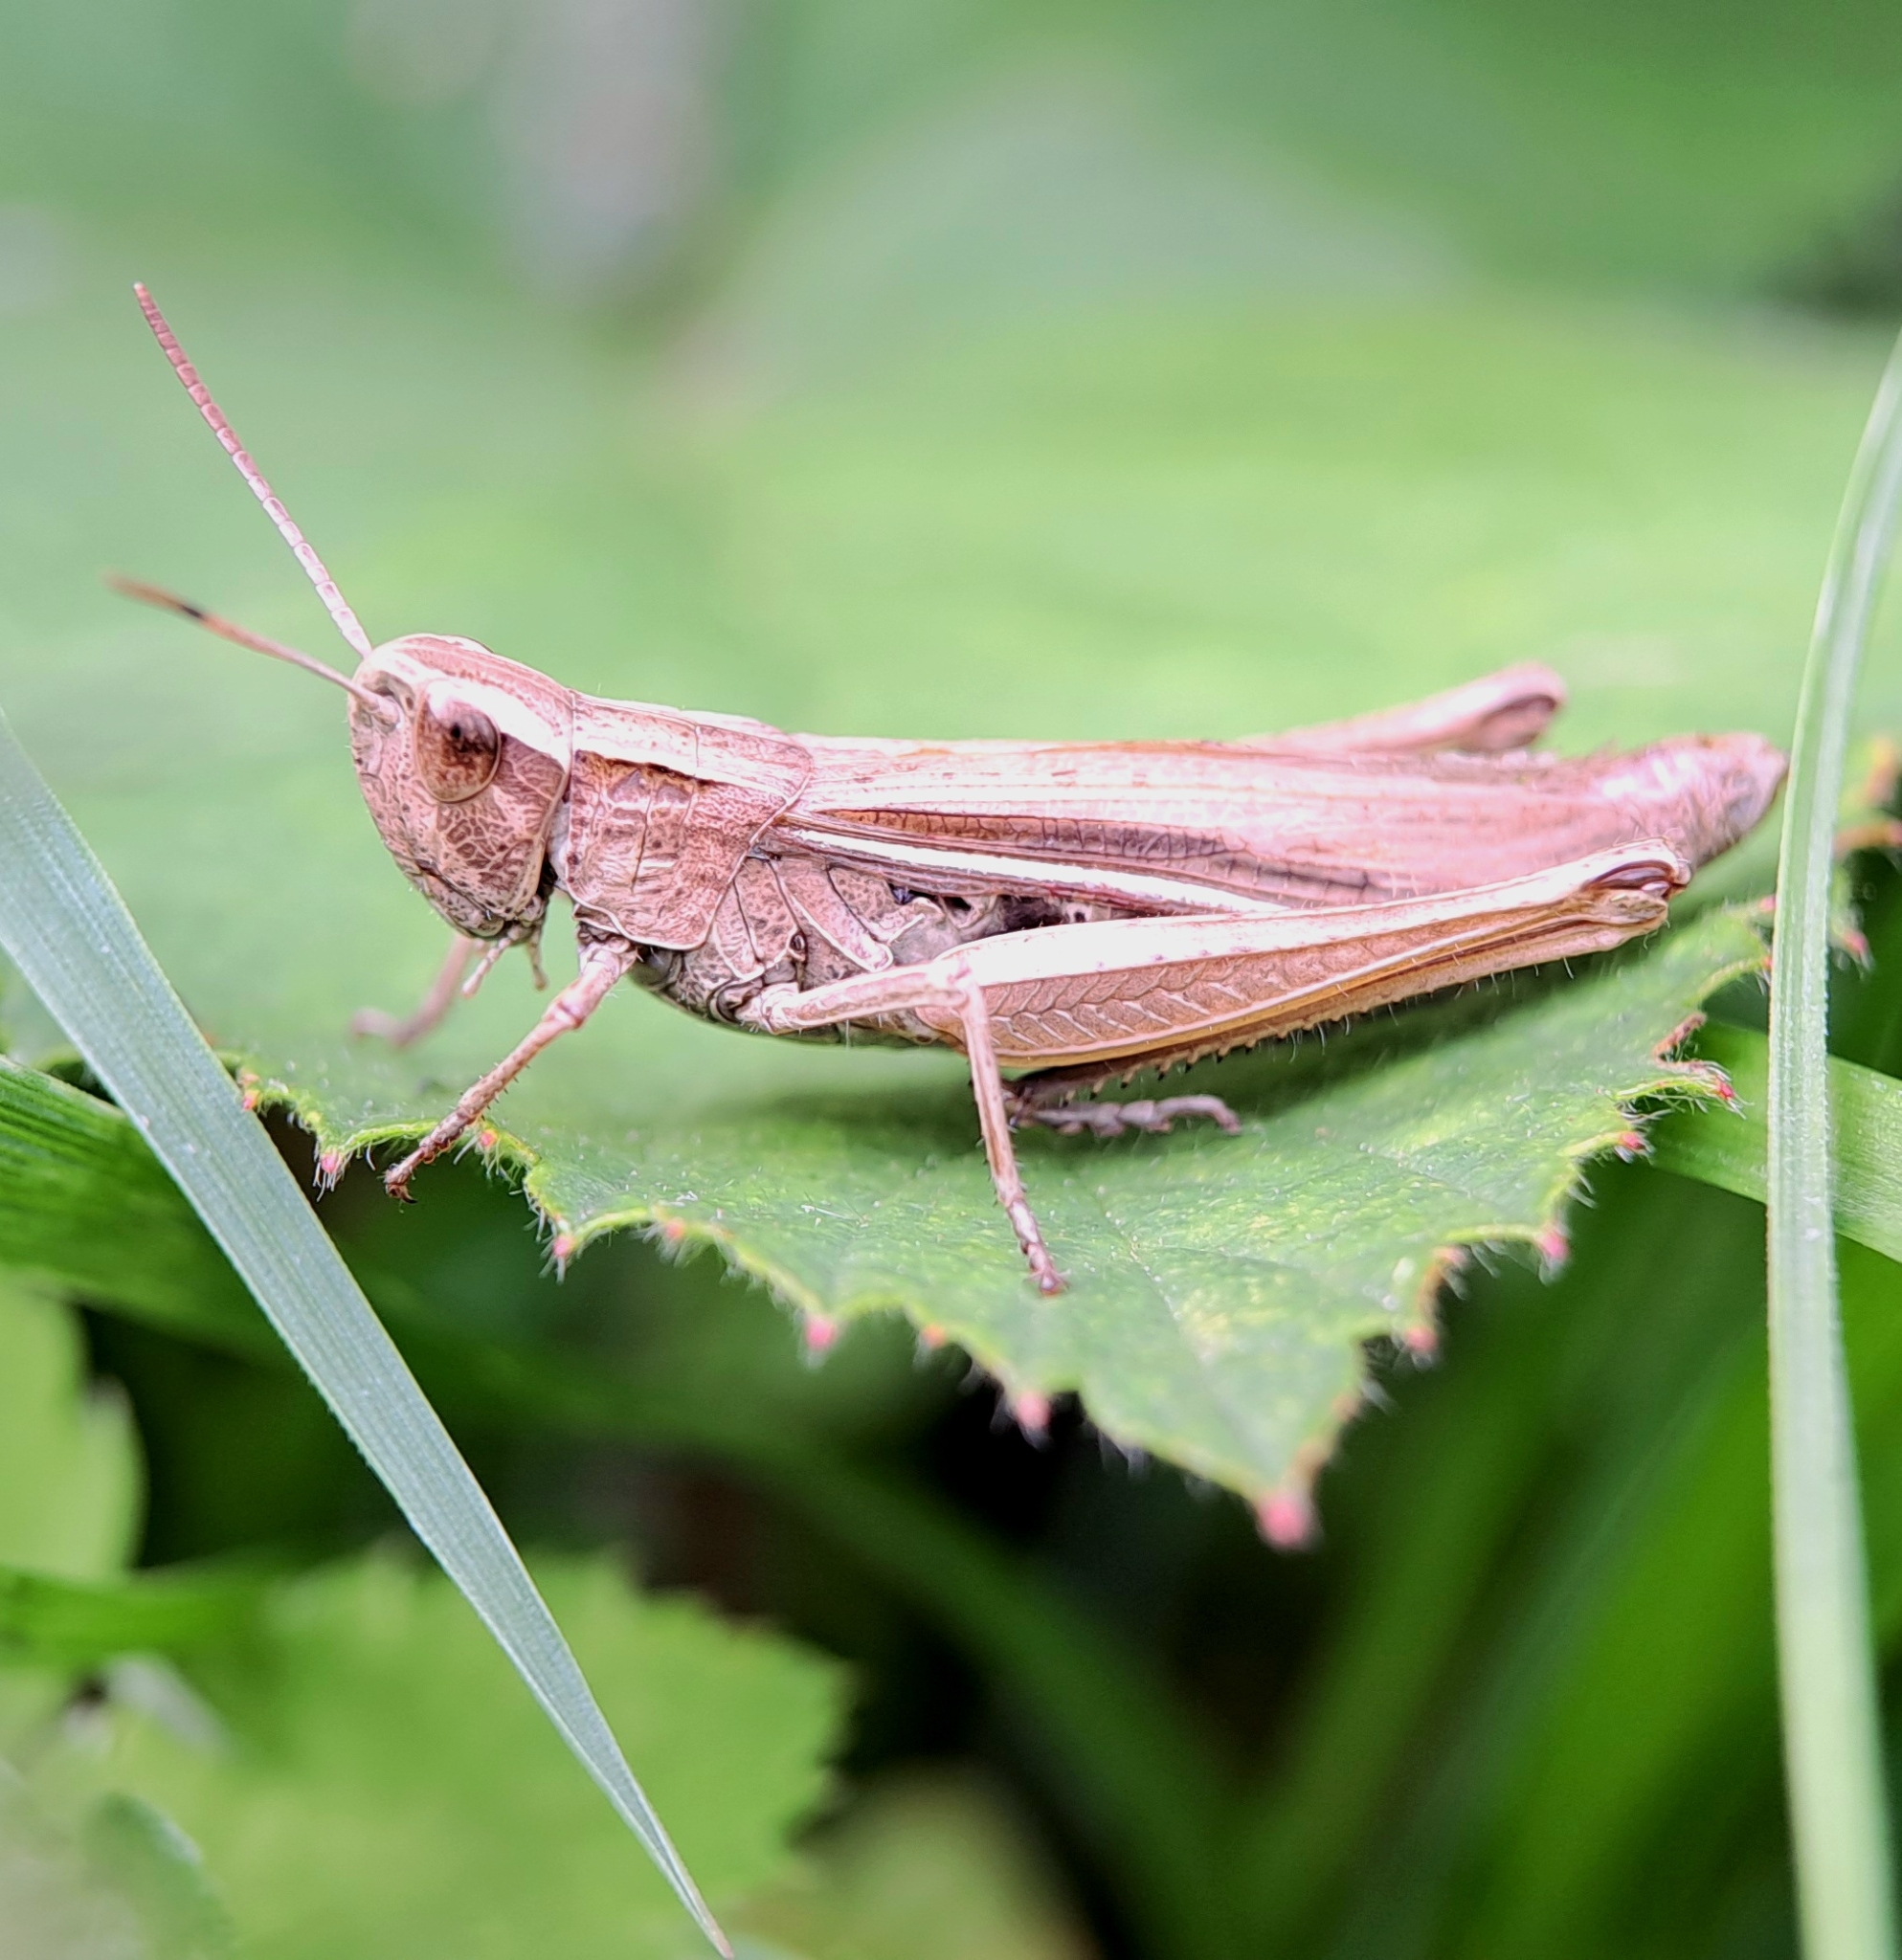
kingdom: Animalia
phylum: Arthropoda
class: Insecta
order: Orthoptera
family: Acrididae
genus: Chorthippus
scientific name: Chorthippus albomarginatus
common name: Lesser marsh grasshopper
